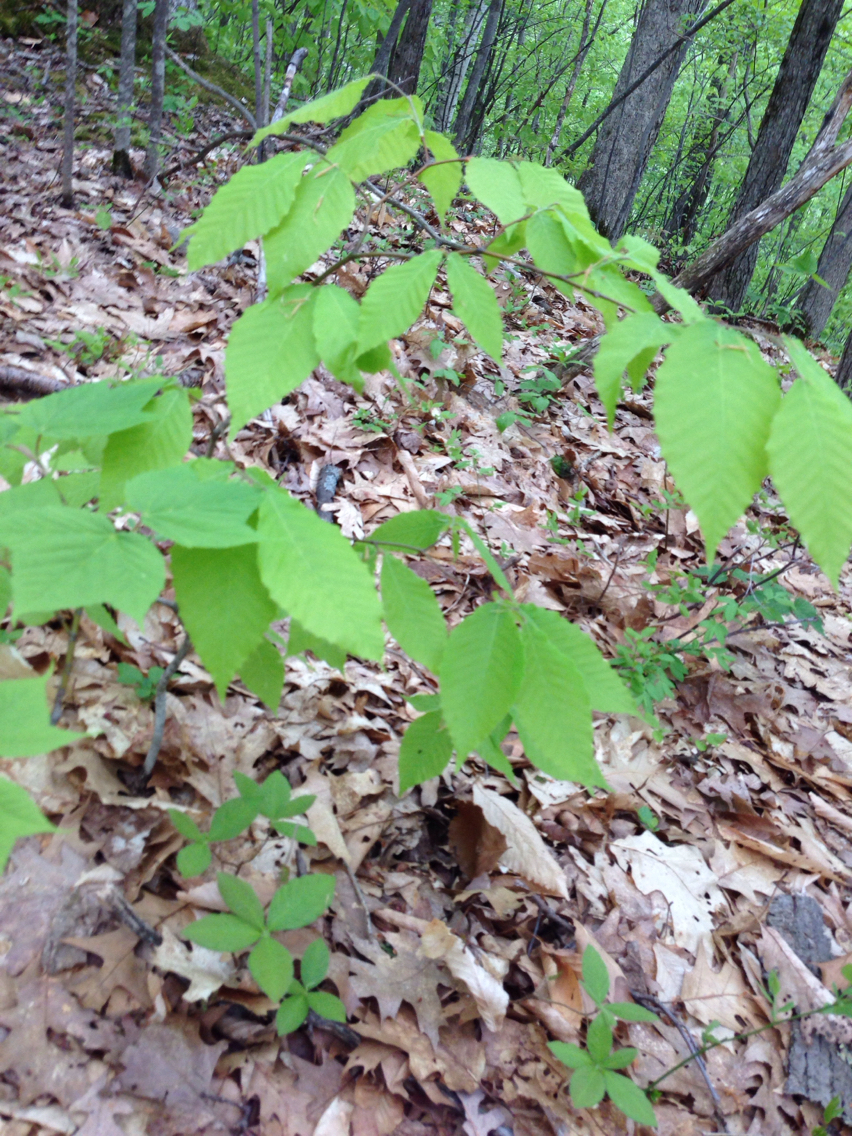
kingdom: Plantae
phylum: Tracheophyta
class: Magnoliopsida
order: Fagales
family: Fagaceae
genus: Fagus
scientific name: Fagus grandifolia
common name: American beech
